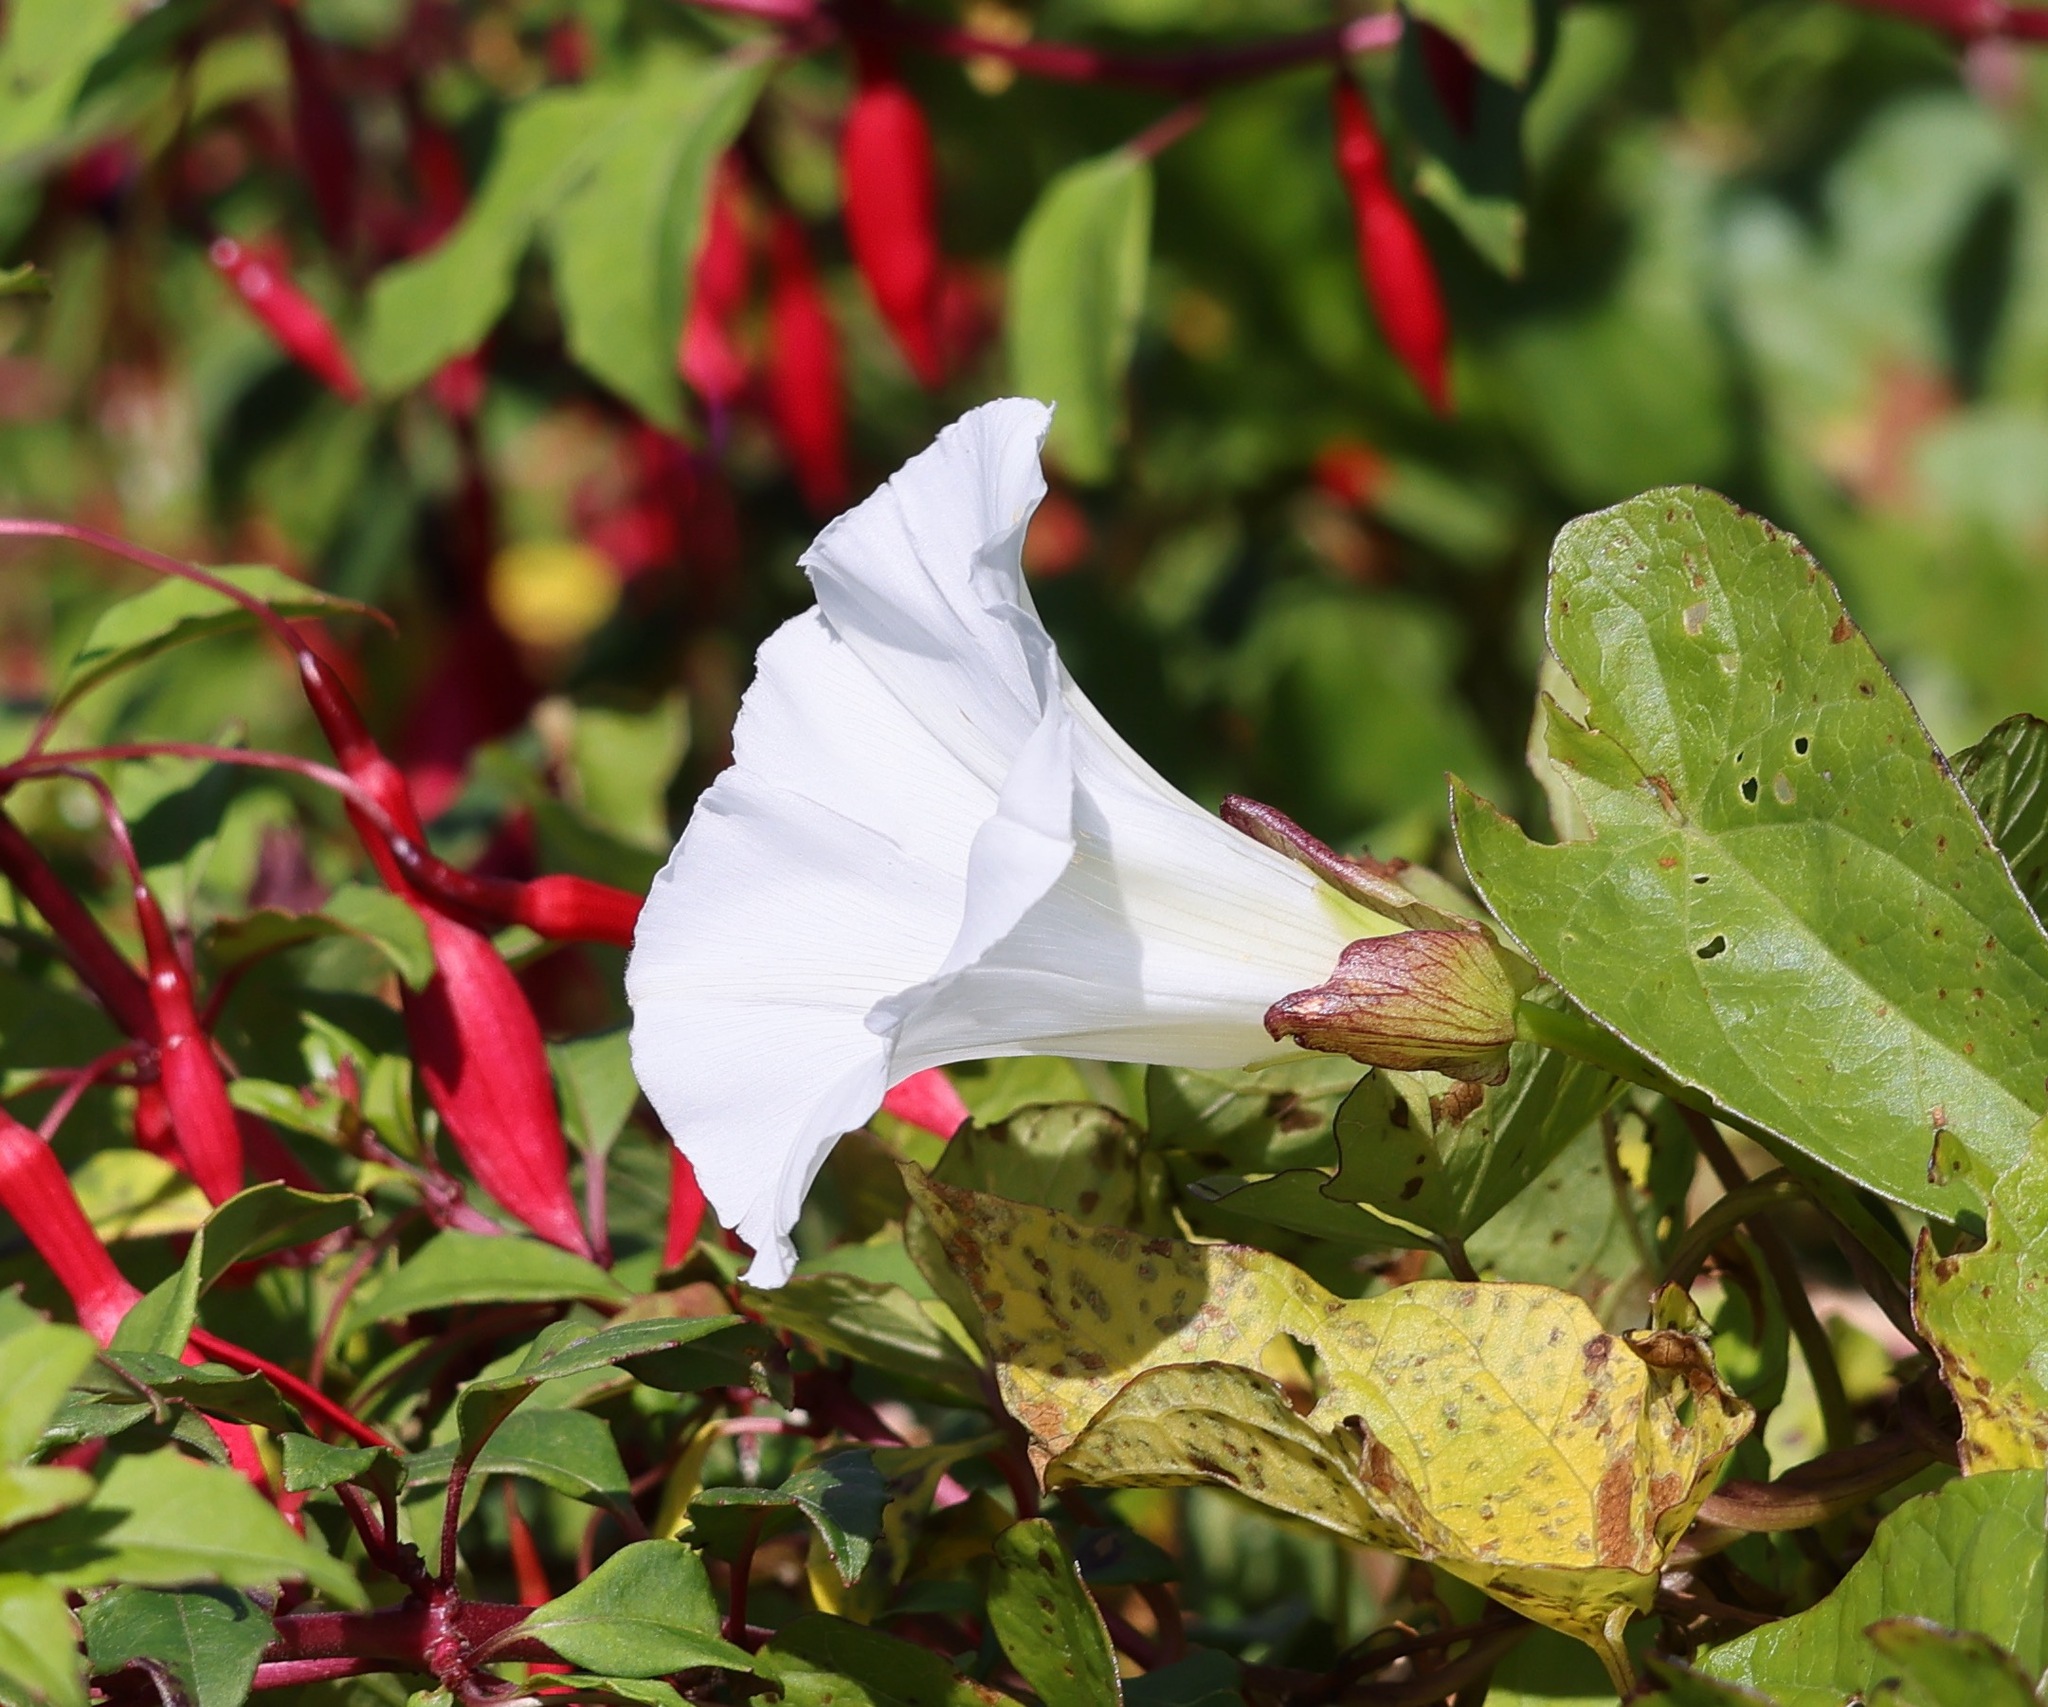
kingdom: Plantae
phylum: Tracheophyta
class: Magnoliopsida
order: Solanales
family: Convolvulaceae
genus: Calystegia
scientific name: Calystegia sepium
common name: Hedge bindweed
